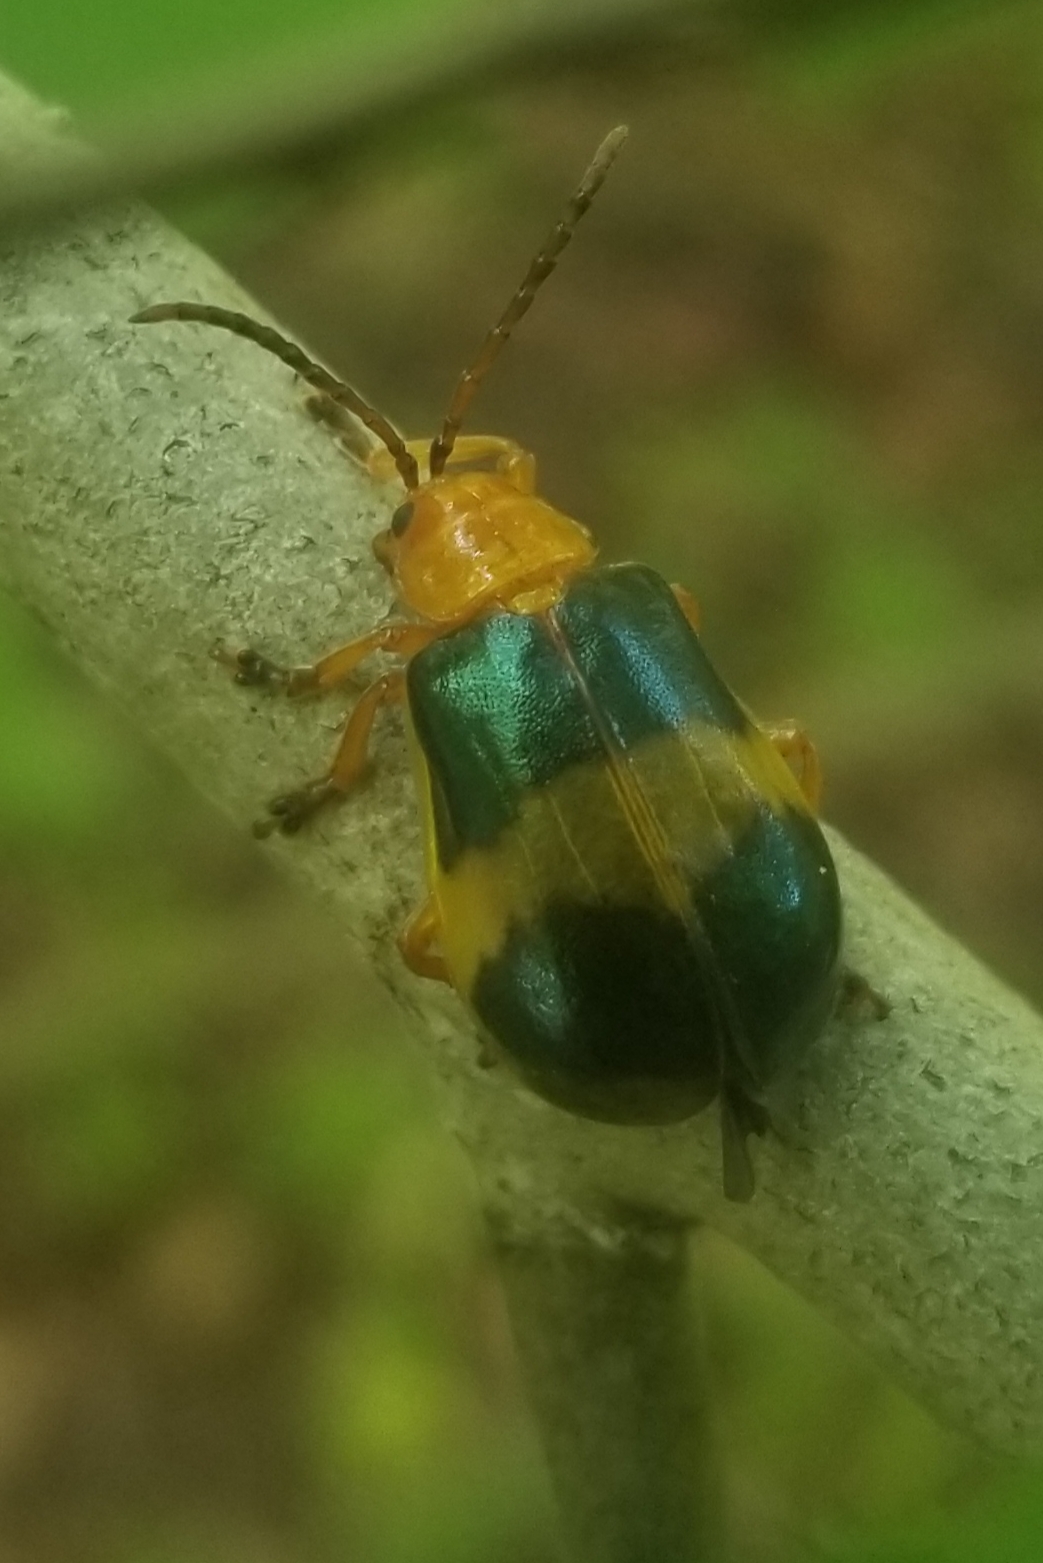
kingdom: Animalia
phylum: Arthropoda
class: Insecta
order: Coleoptera
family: Chrysomelidae
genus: Monocesta
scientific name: Monocesta coryli
